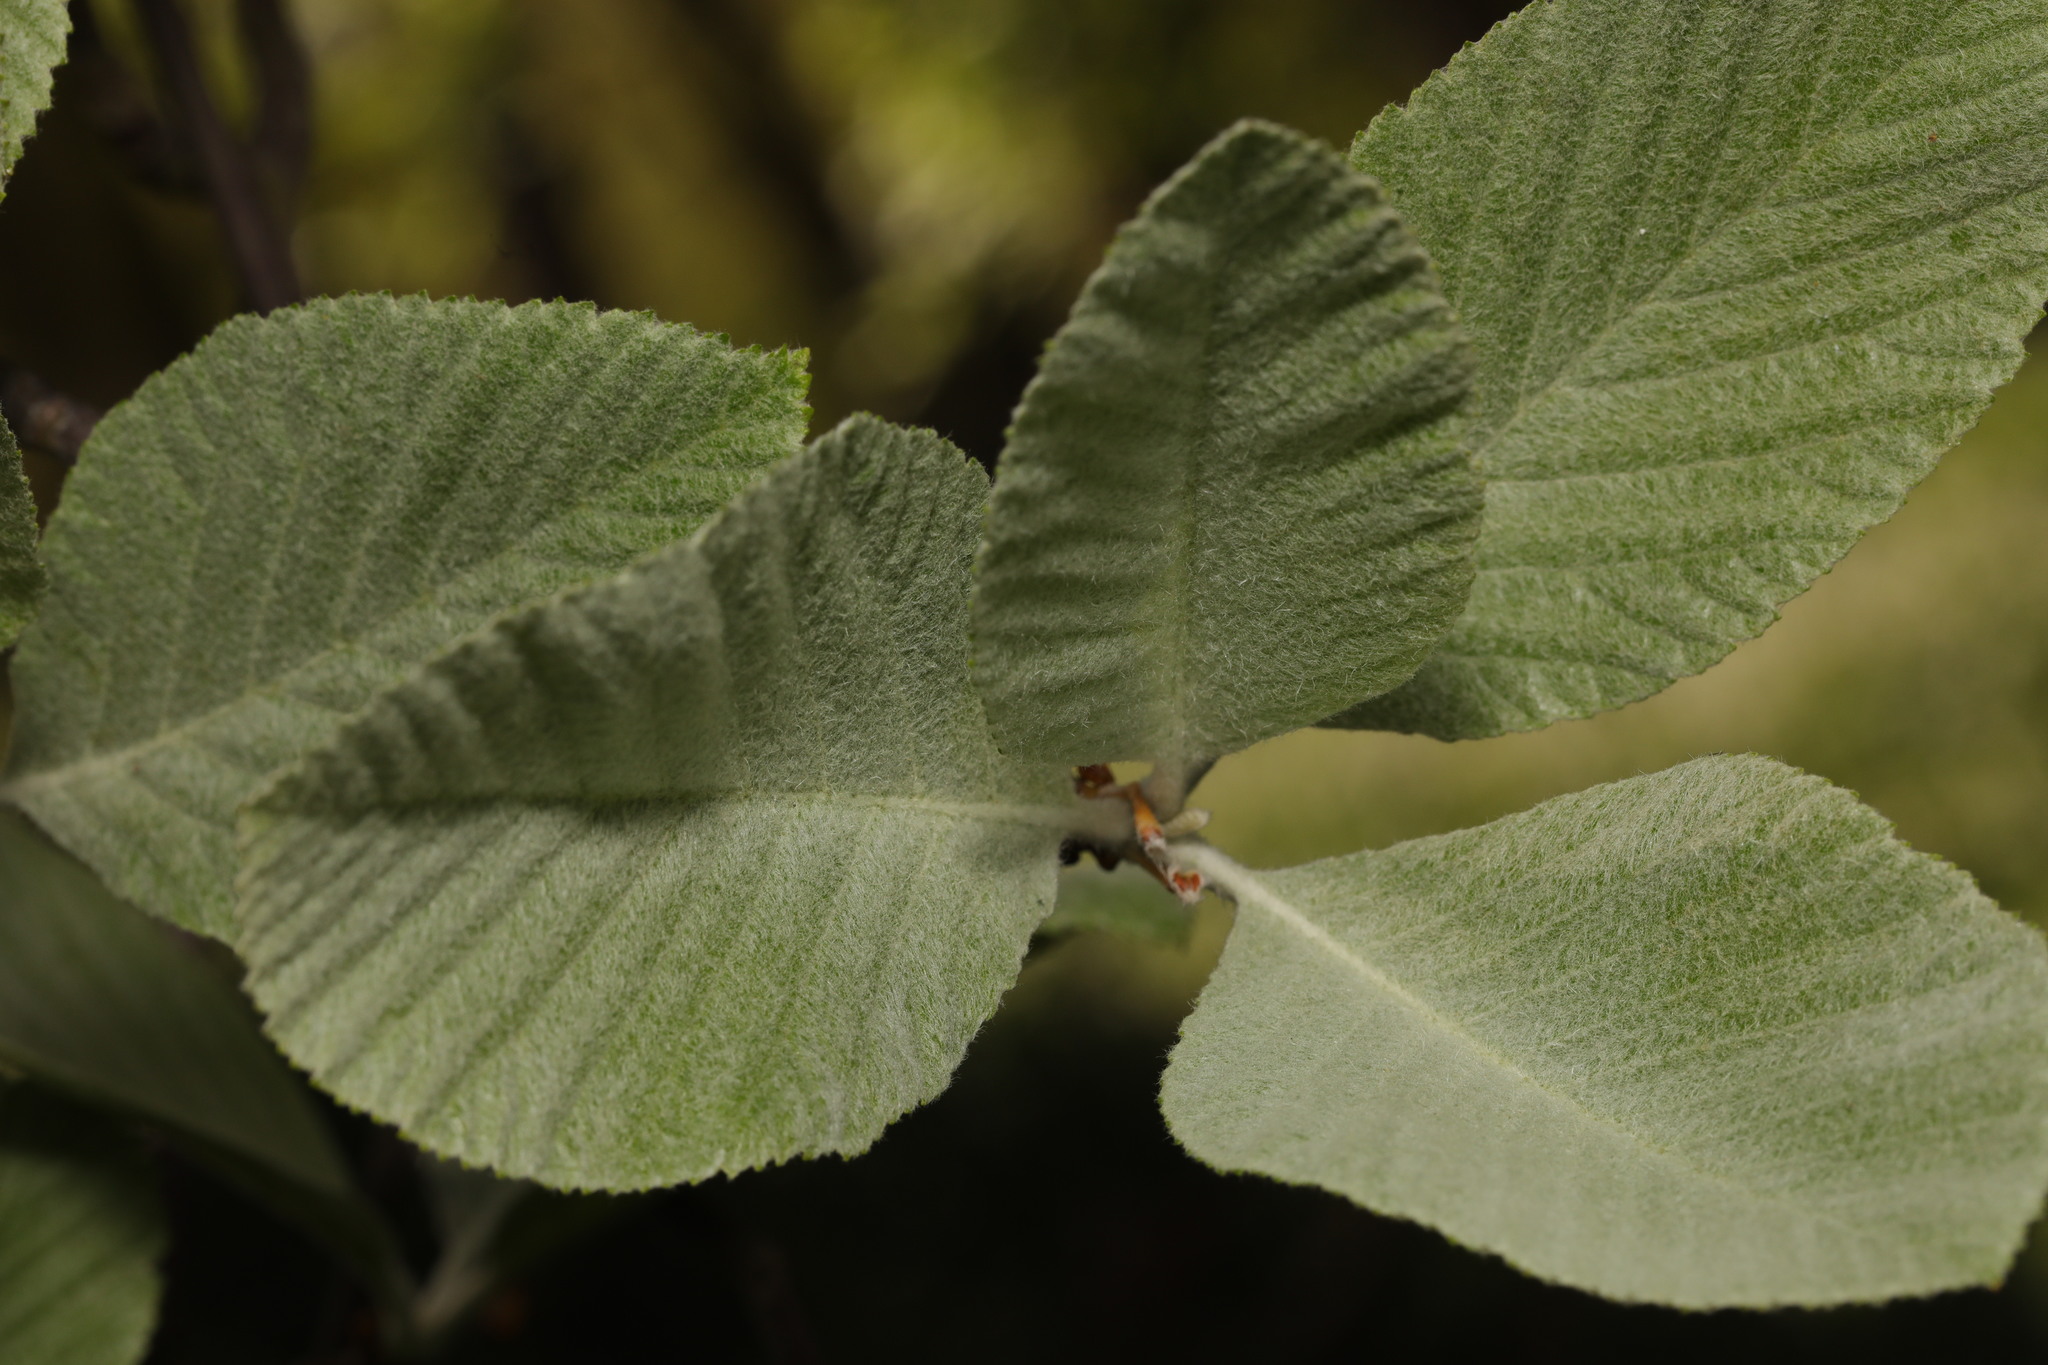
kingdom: Plantae
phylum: Tracheophyta
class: Magnoliopsida
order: Rosales
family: Rosaceae
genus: Aria
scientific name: Aria edulis
